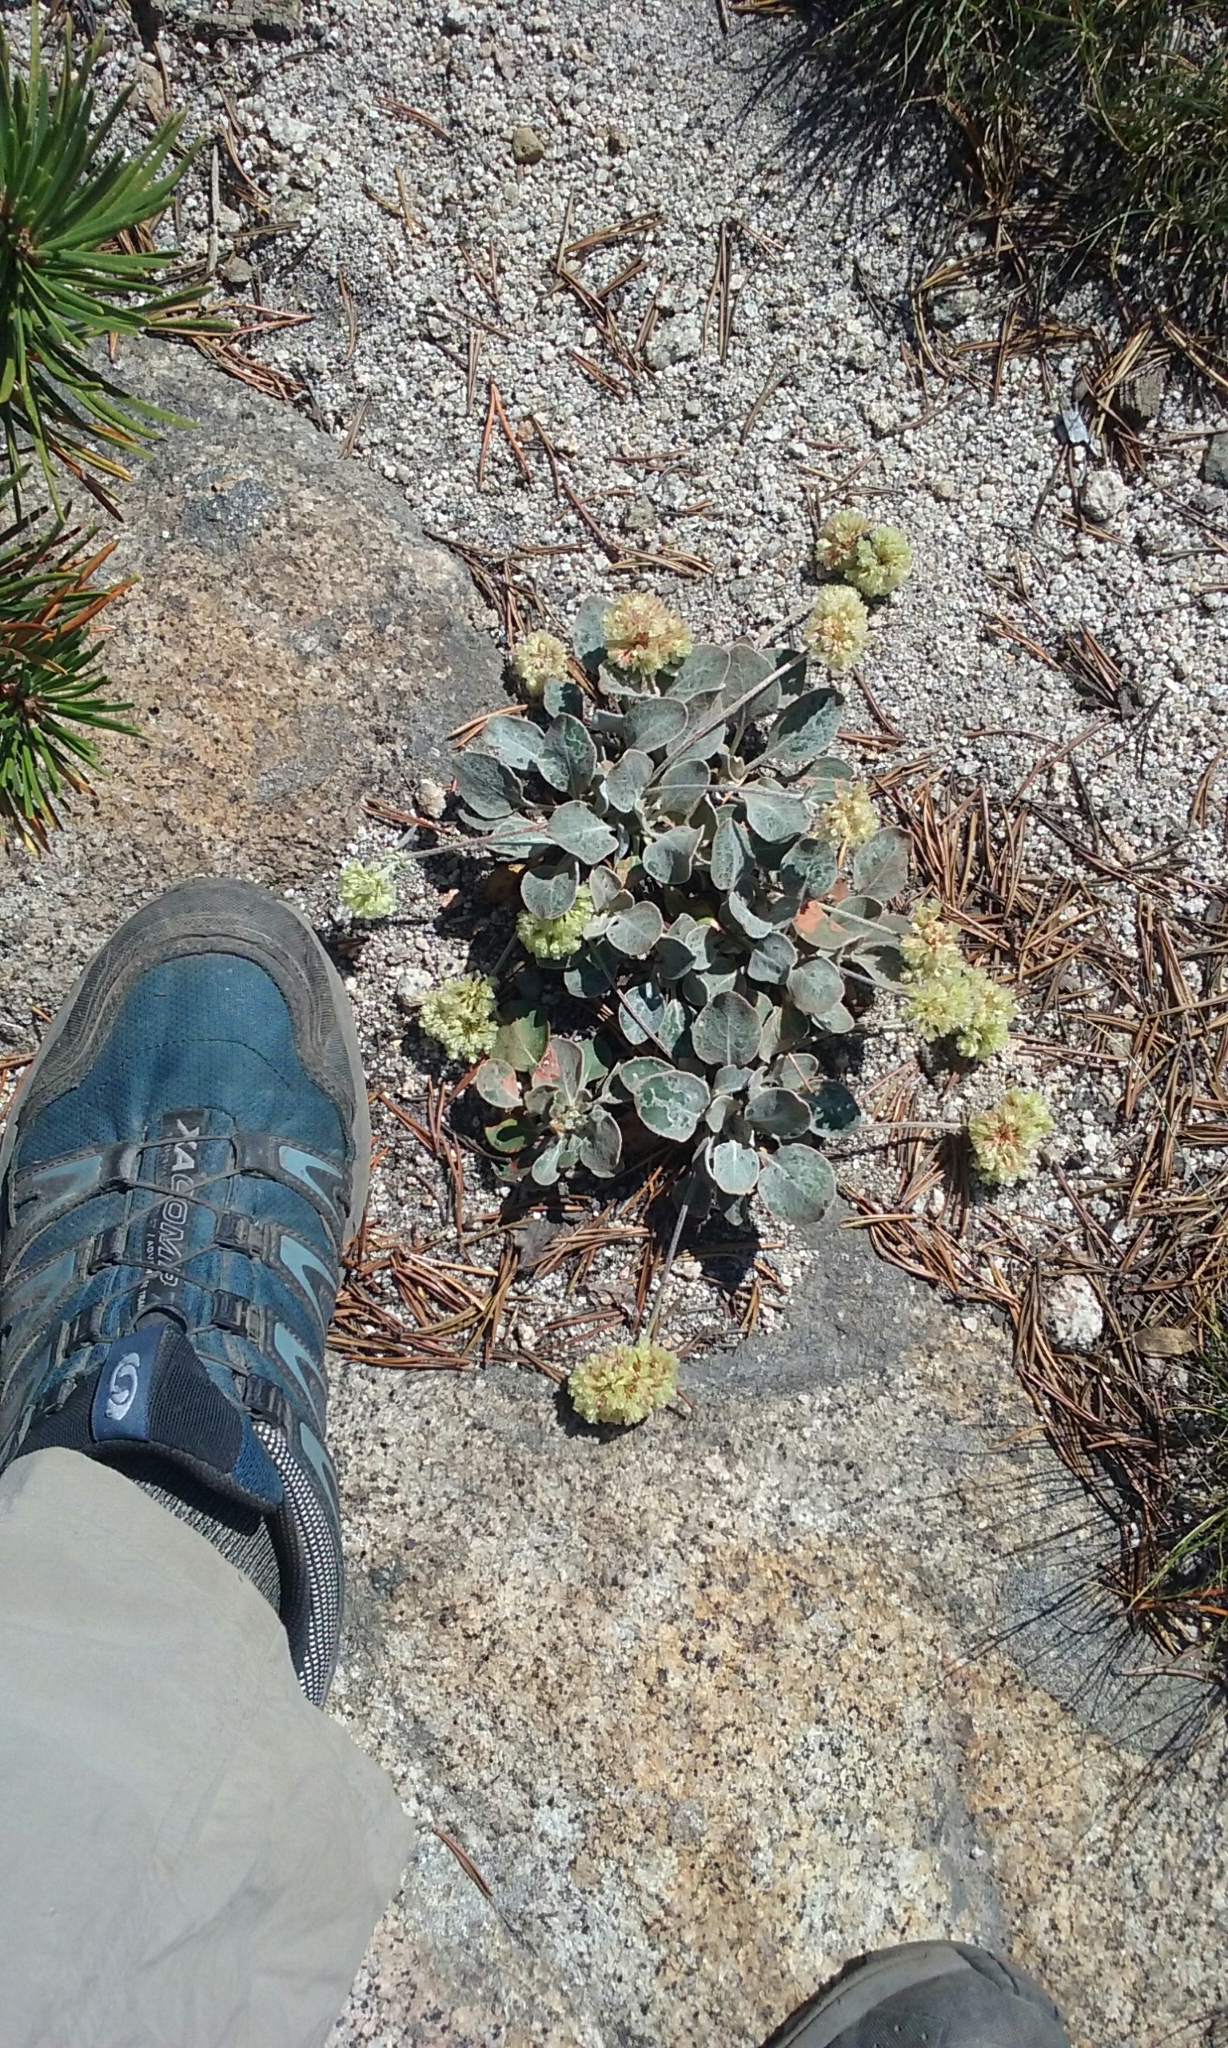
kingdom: Plantae
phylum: Tracheophyta
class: Magnoliopsida
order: Caryophyllales
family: Polygonaceae
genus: Eriogonum
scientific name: Eriogonum lobbii
